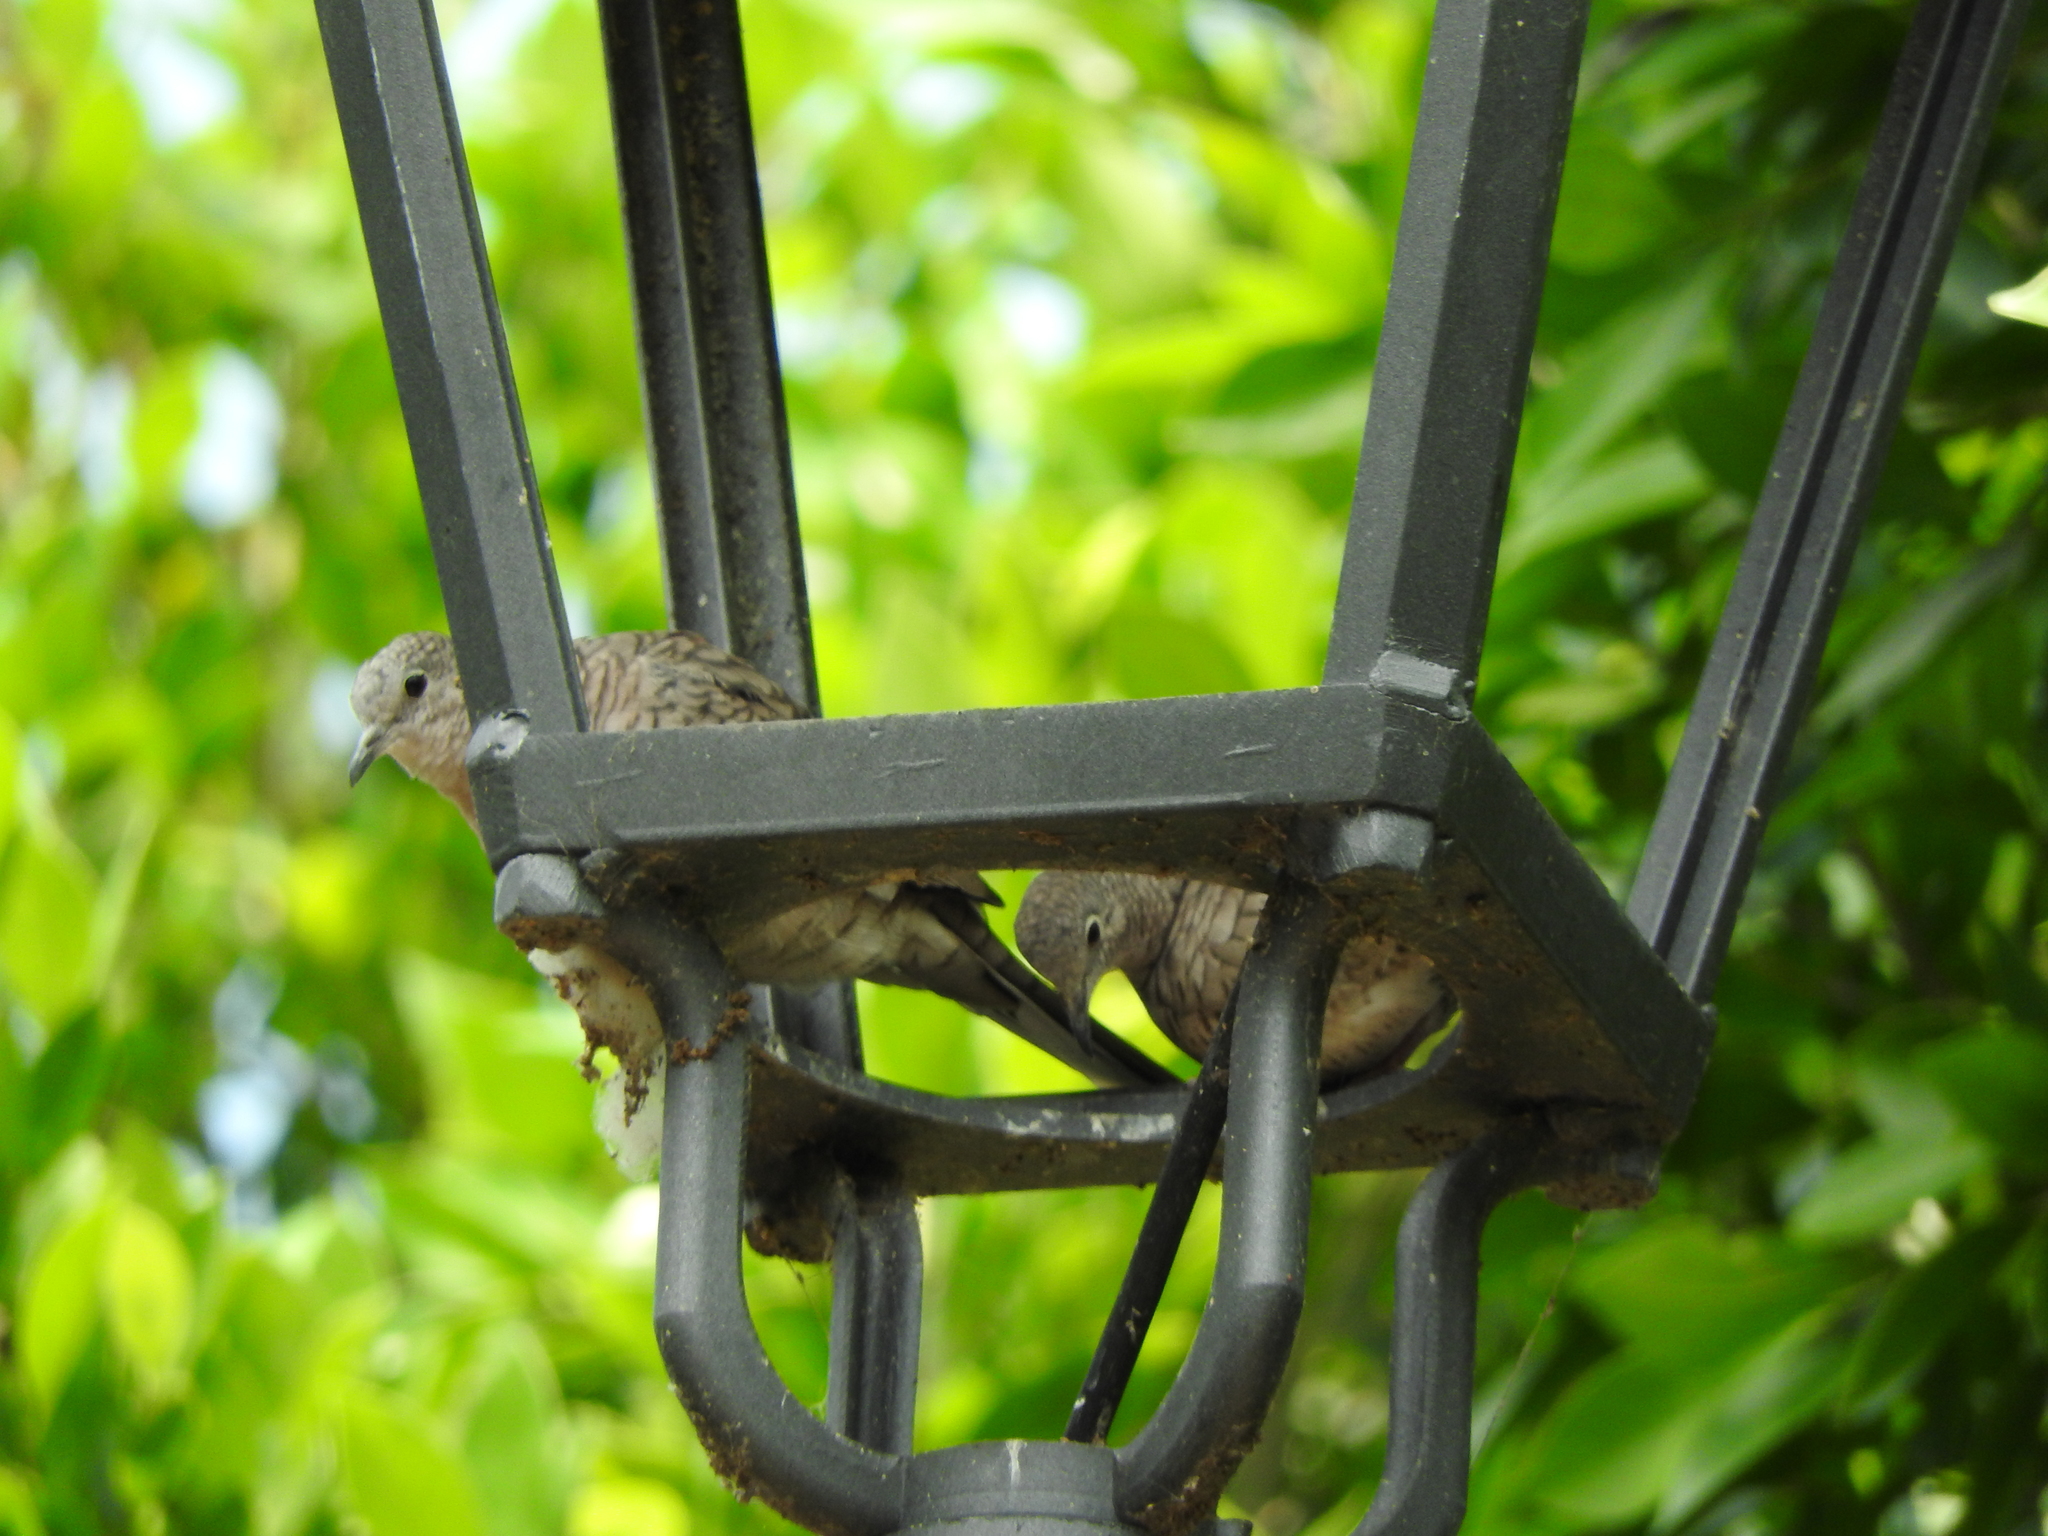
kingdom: Animalia
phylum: Chordata
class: Aves
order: Columbiformes
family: Columbidae
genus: Columbina
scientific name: Columbina inca
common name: Inca dove
